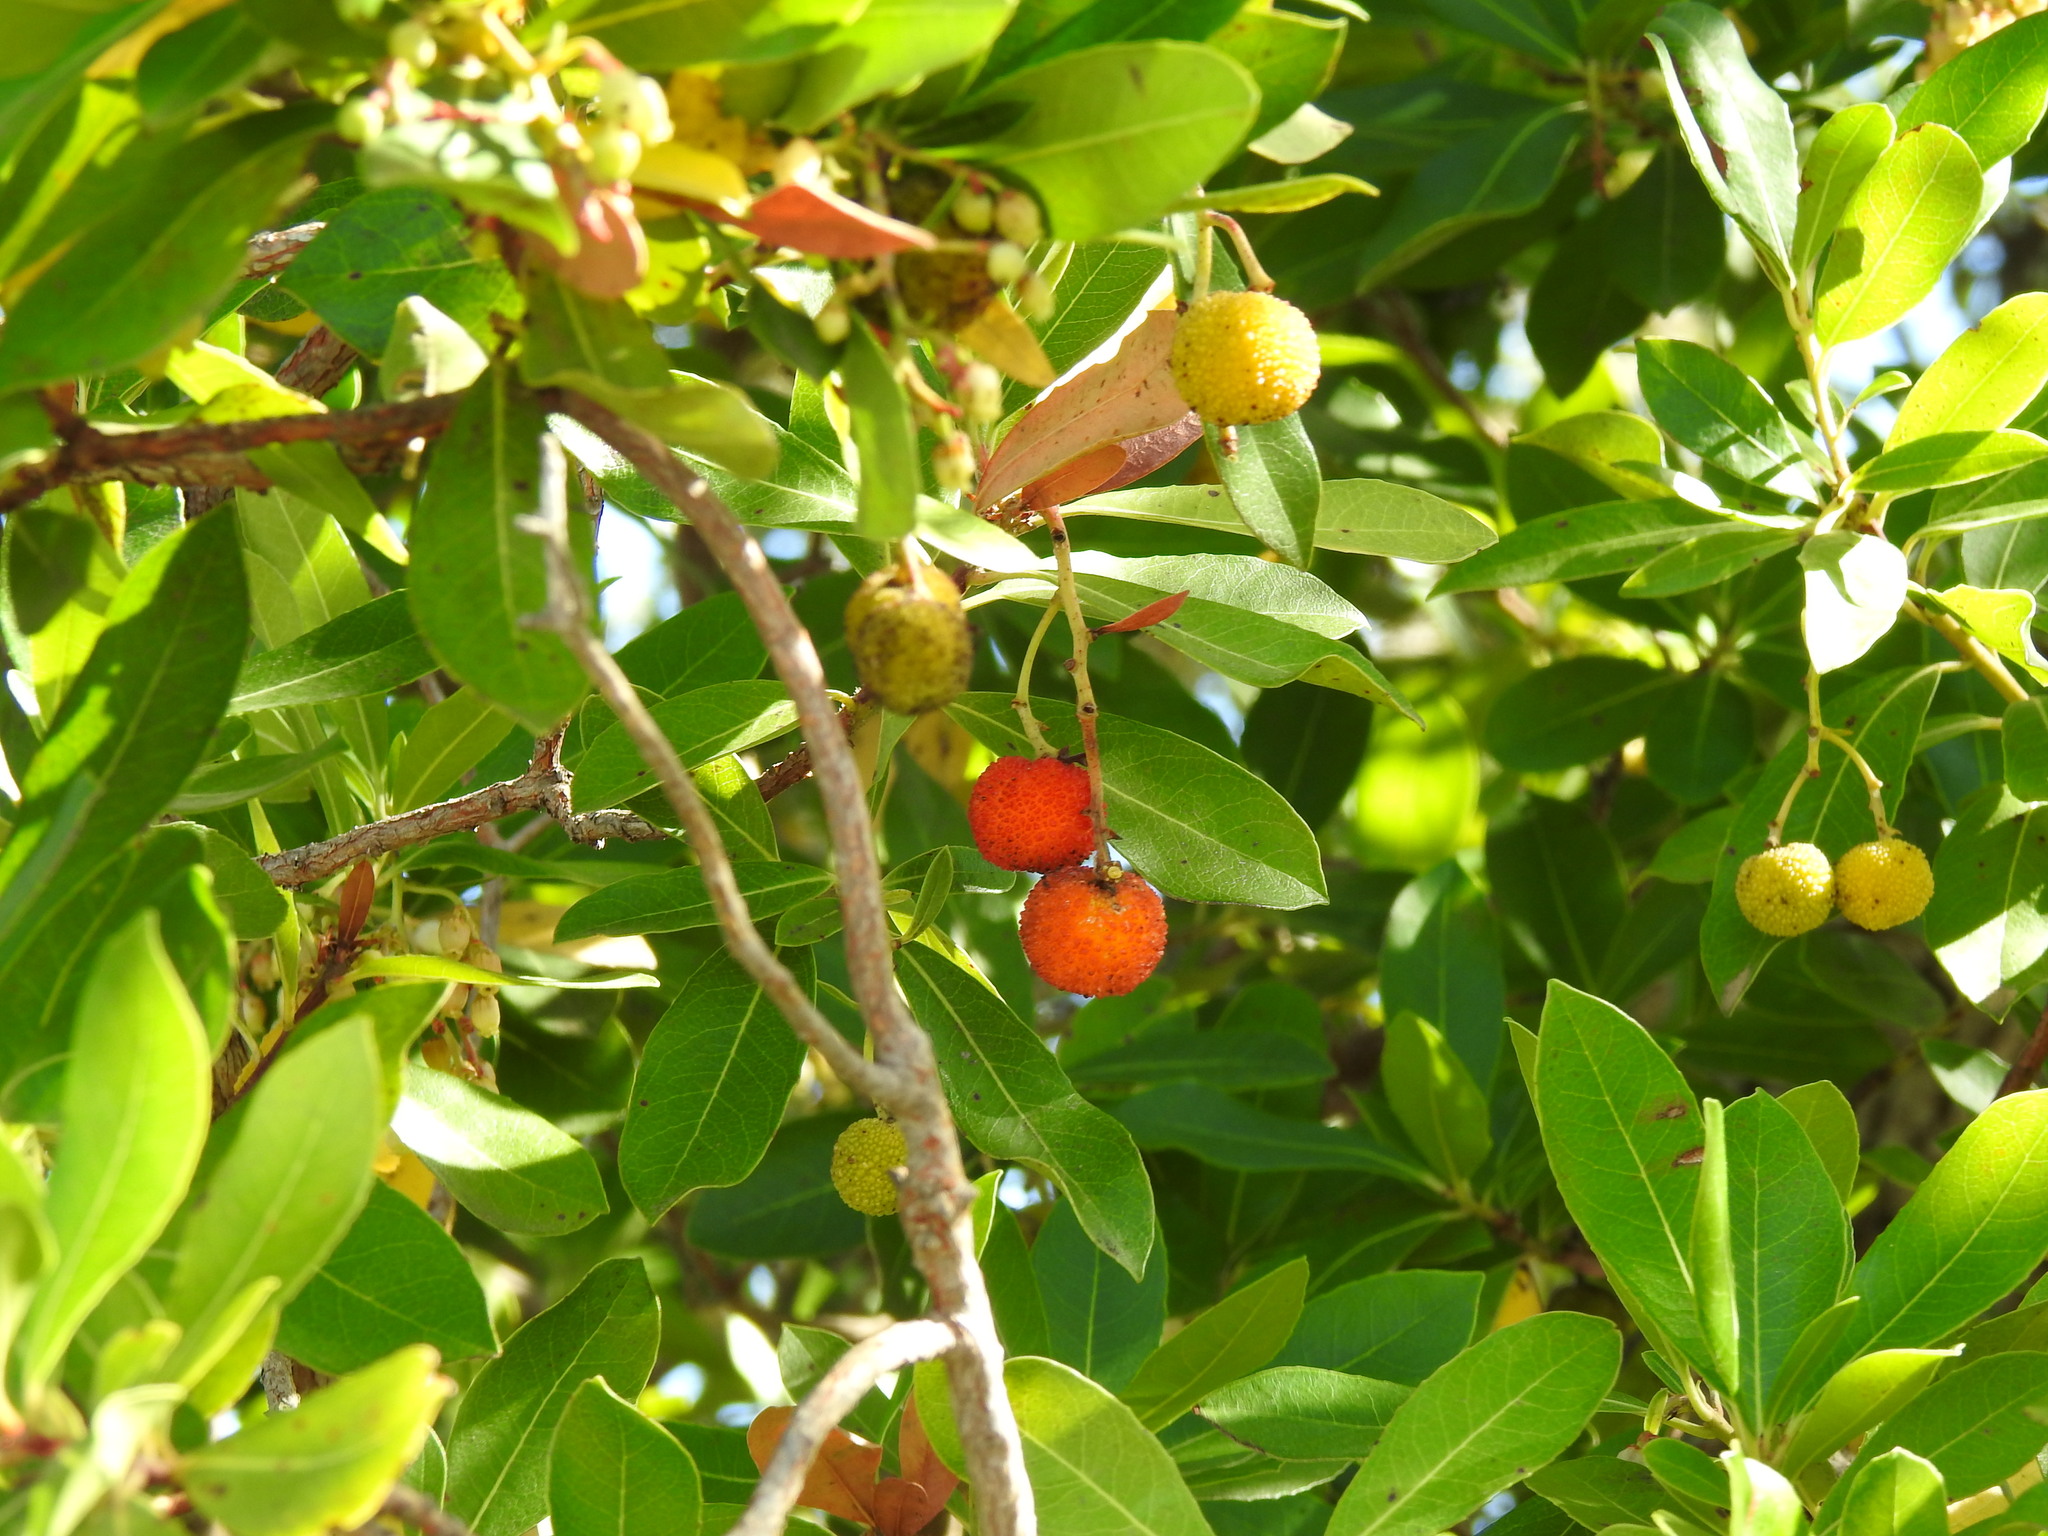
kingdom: Plantae
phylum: Tracheophyta
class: Magnoliopsida
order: Ericales
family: Ericaceae
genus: Arbutus
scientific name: Arbutus unedo
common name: Strawberry-tree
